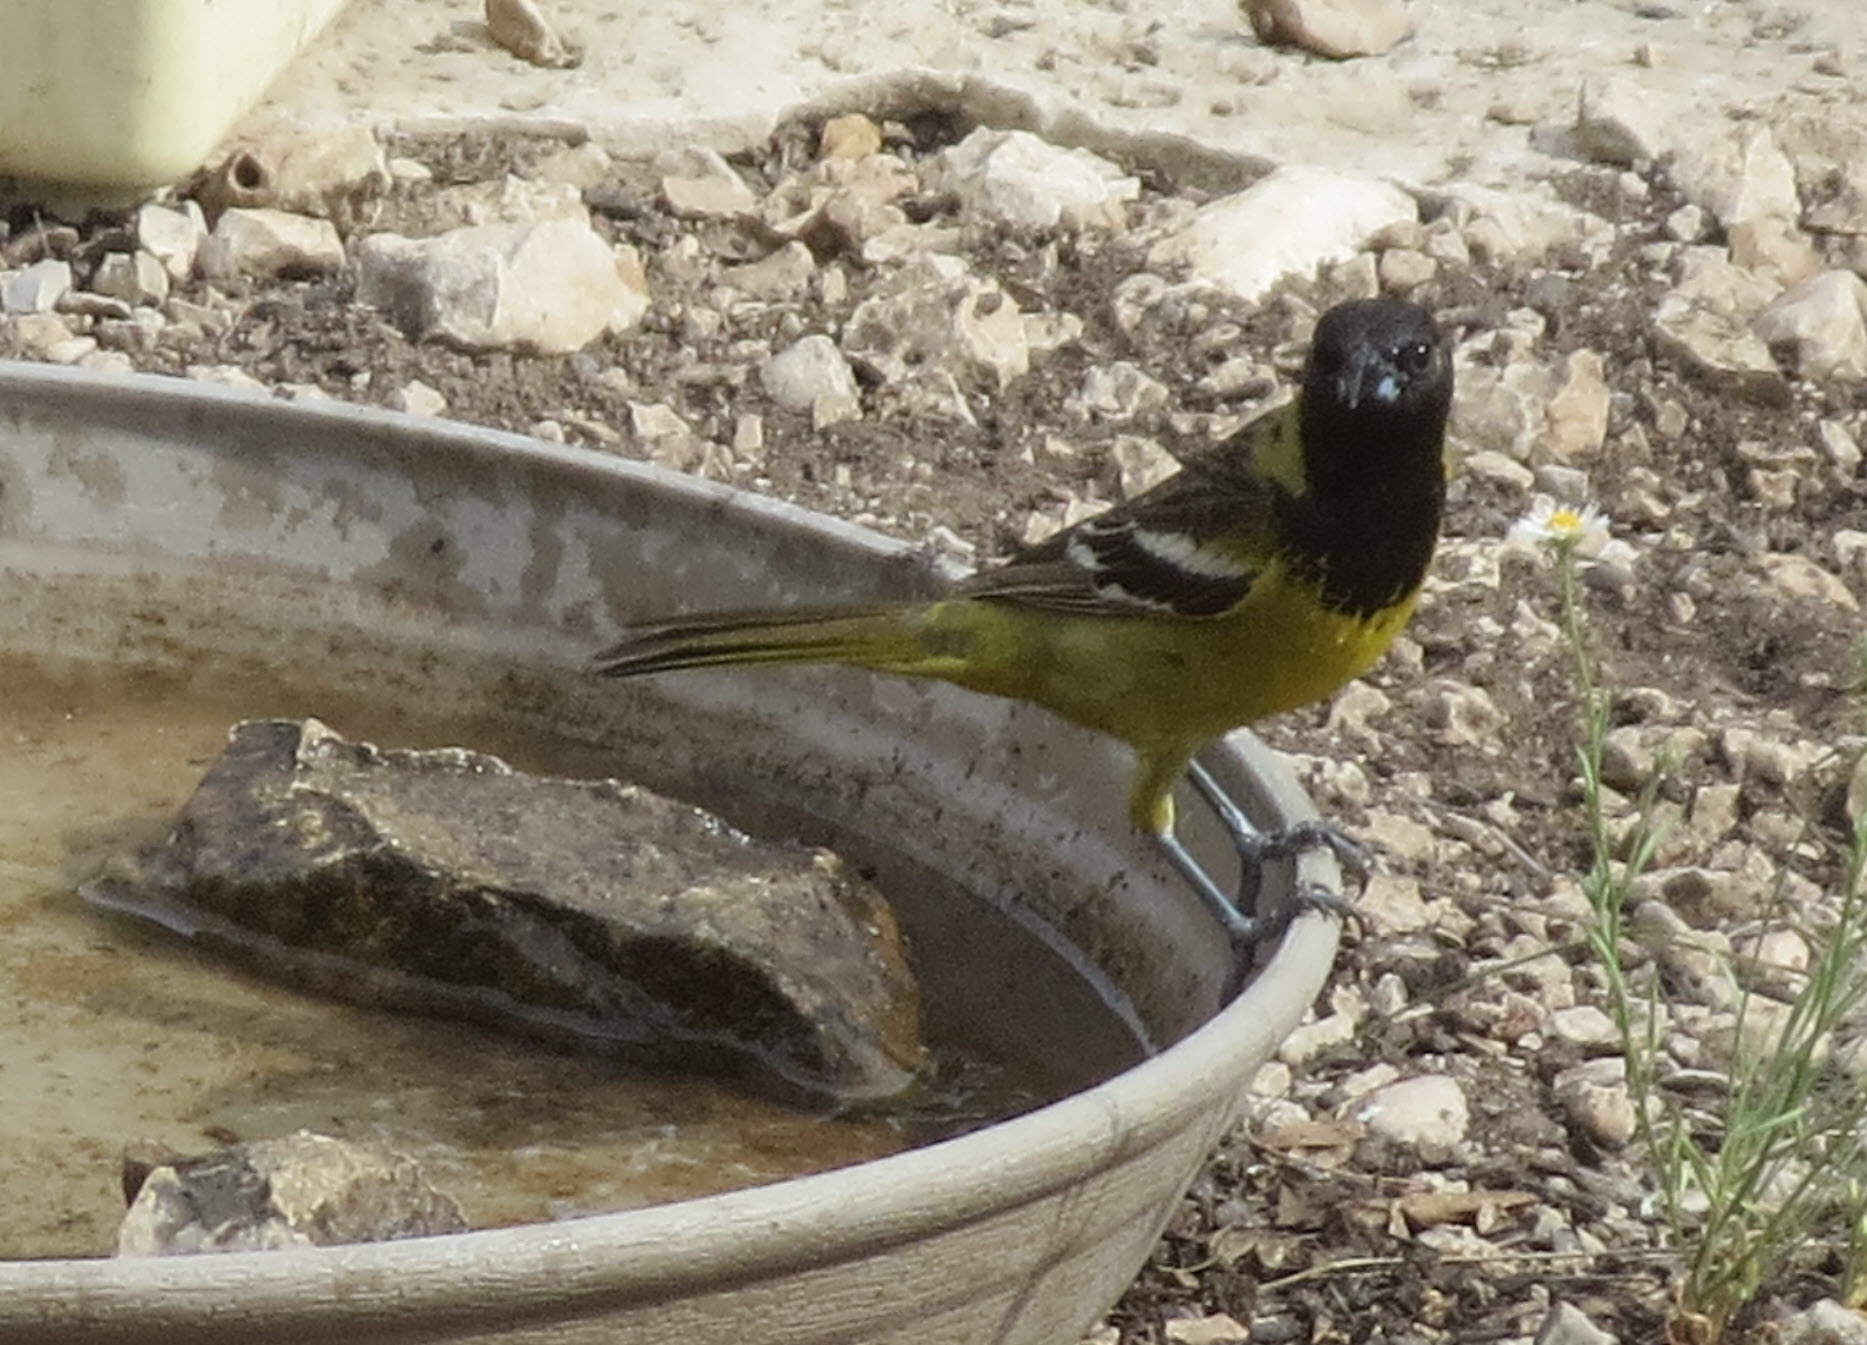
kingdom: Animalia
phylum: Chordata
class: Aves
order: Passeriformes
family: Icteridae
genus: Icterus
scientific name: Icterus parisorum
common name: Scott's oriole
